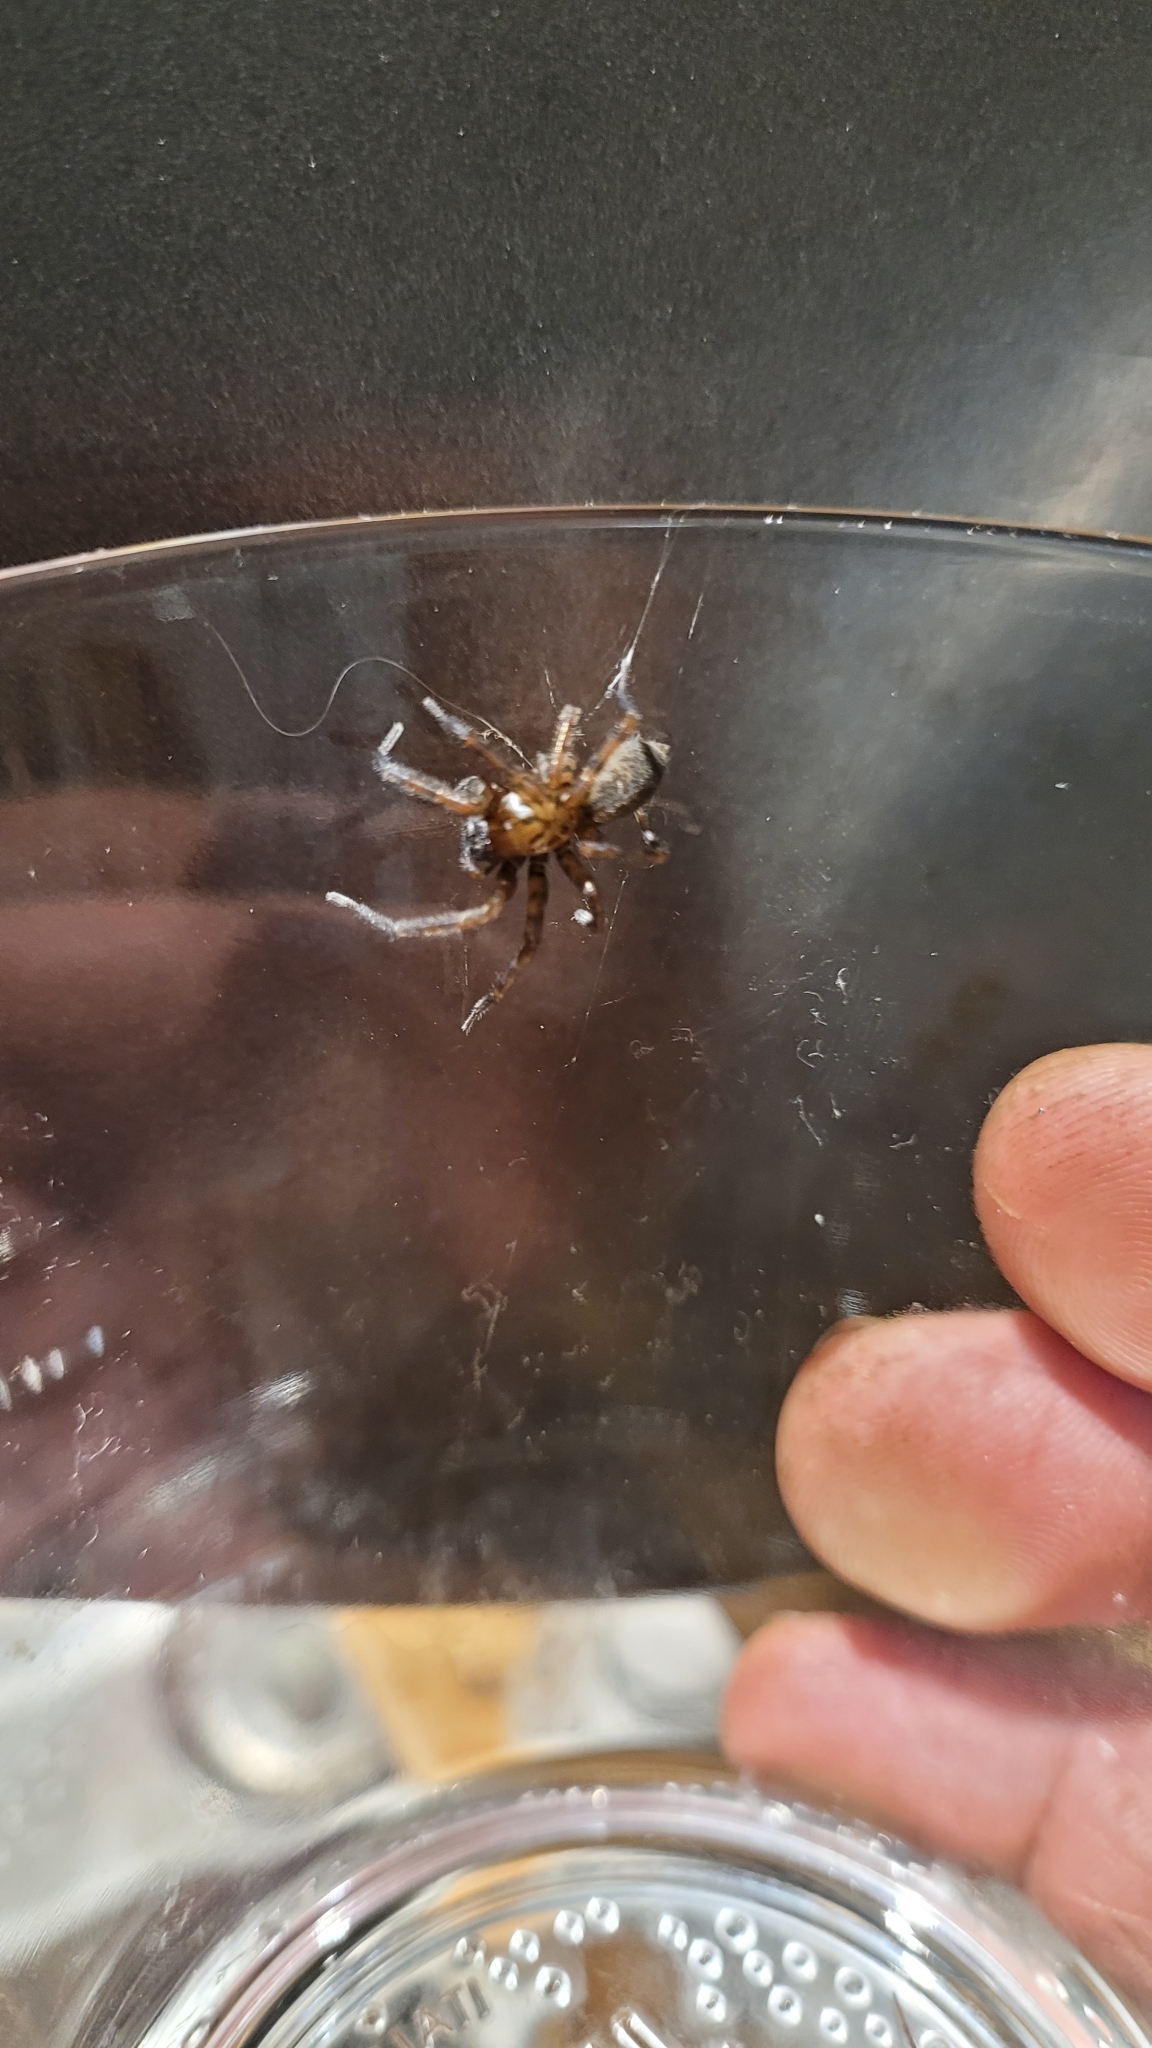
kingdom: Animalia
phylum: Arthropoda
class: Arachnida
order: Araneae
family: Agelenidae
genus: Coras
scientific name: Coras
